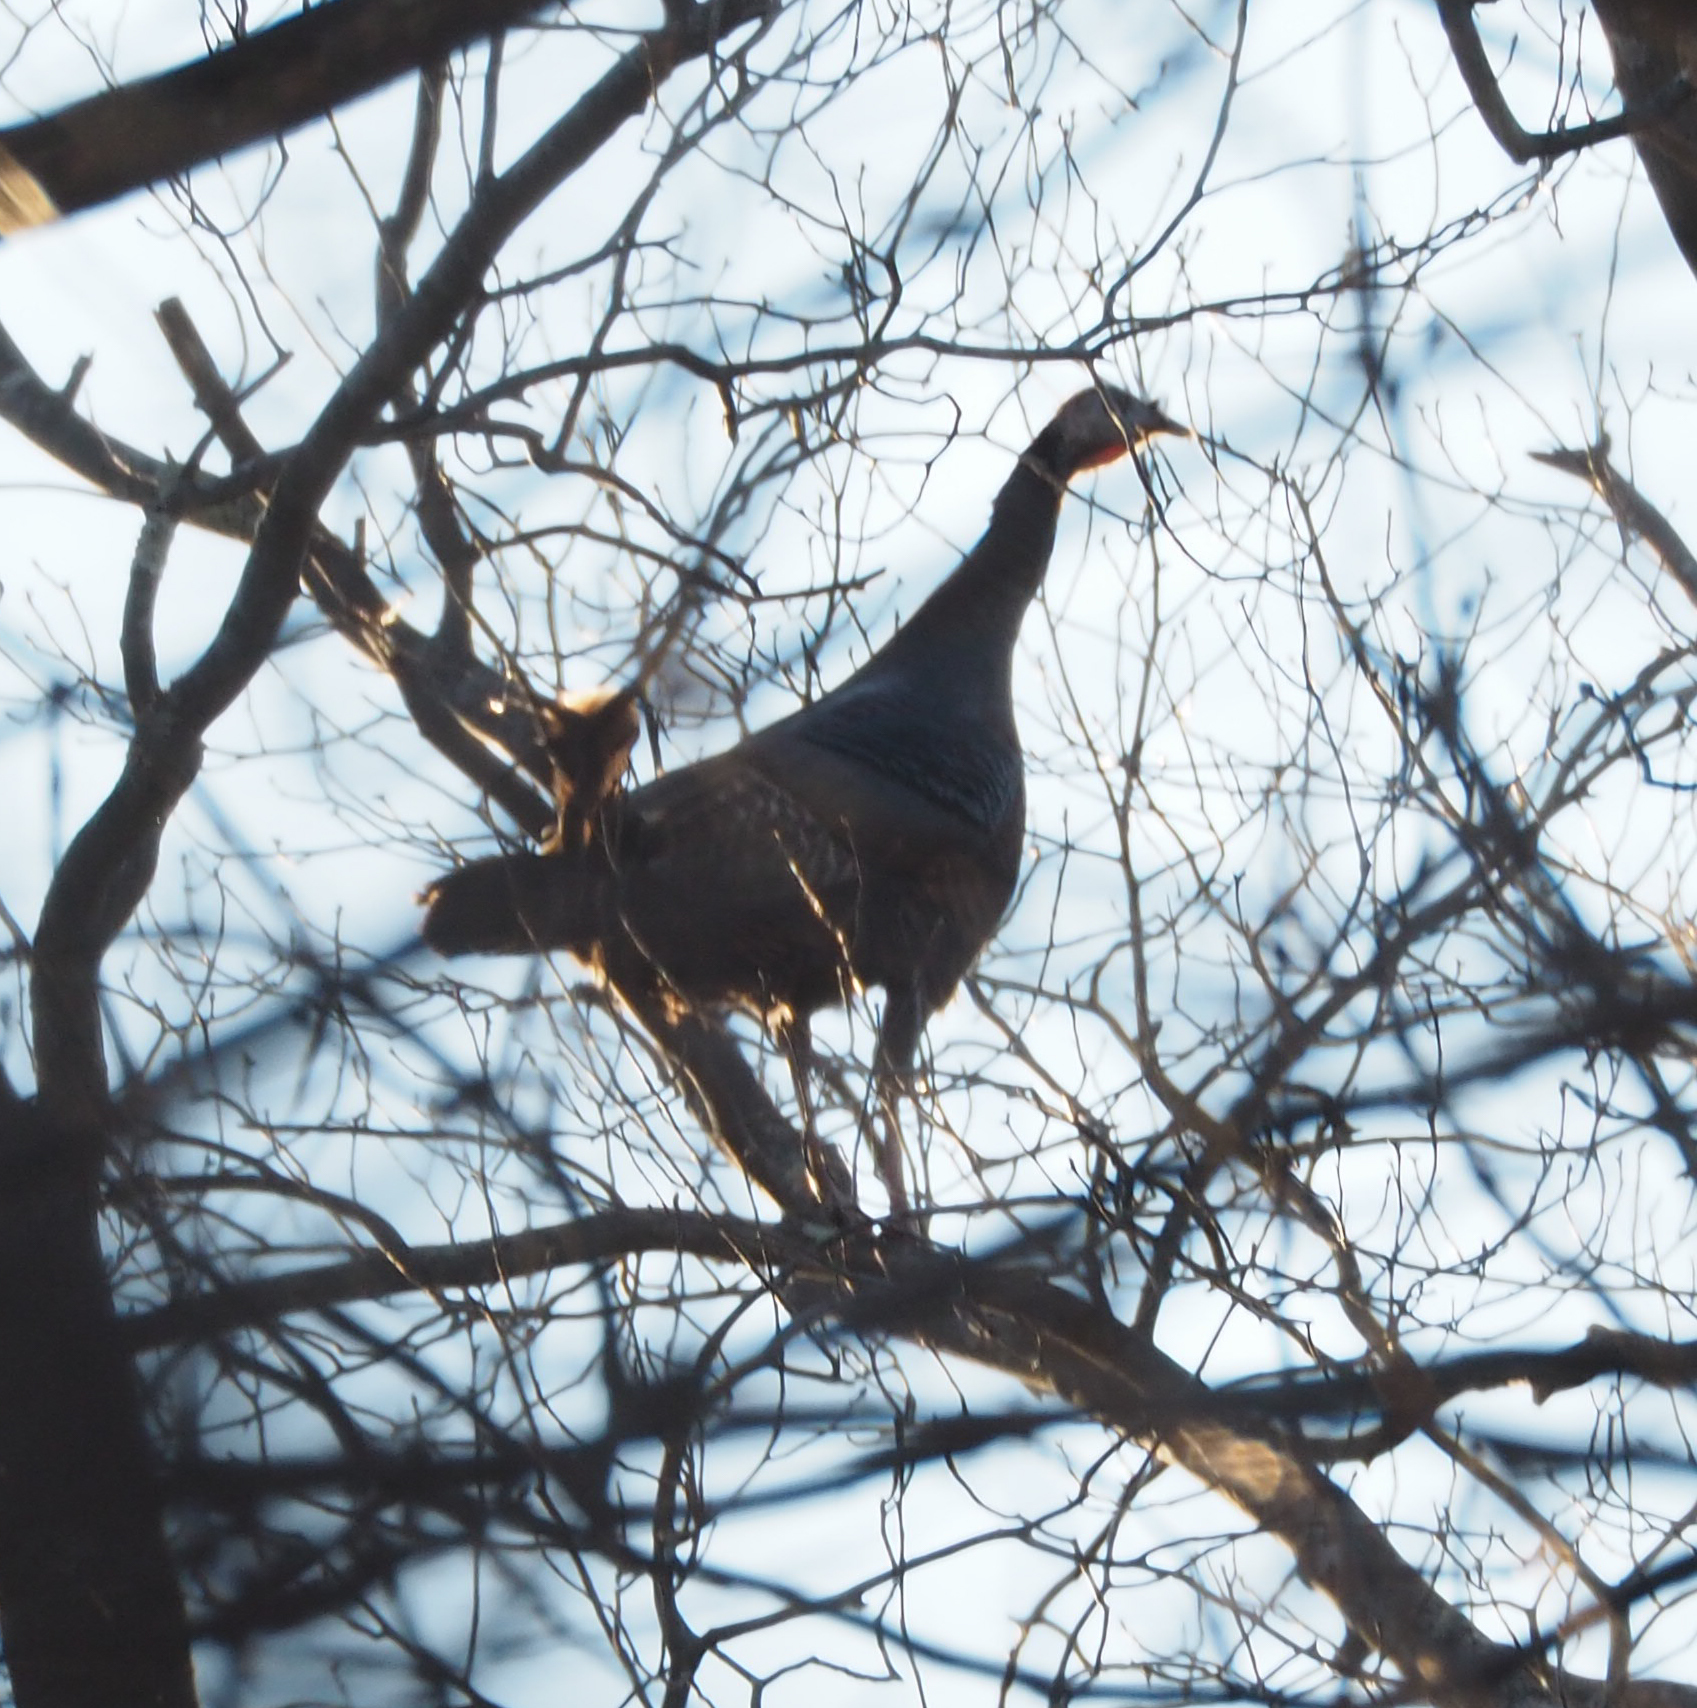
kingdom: Animalia
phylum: Chordata
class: Aves
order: Galliformes
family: Phasianidae
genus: Meleagris
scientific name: Meleagris gallopavo
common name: Wild turkey
